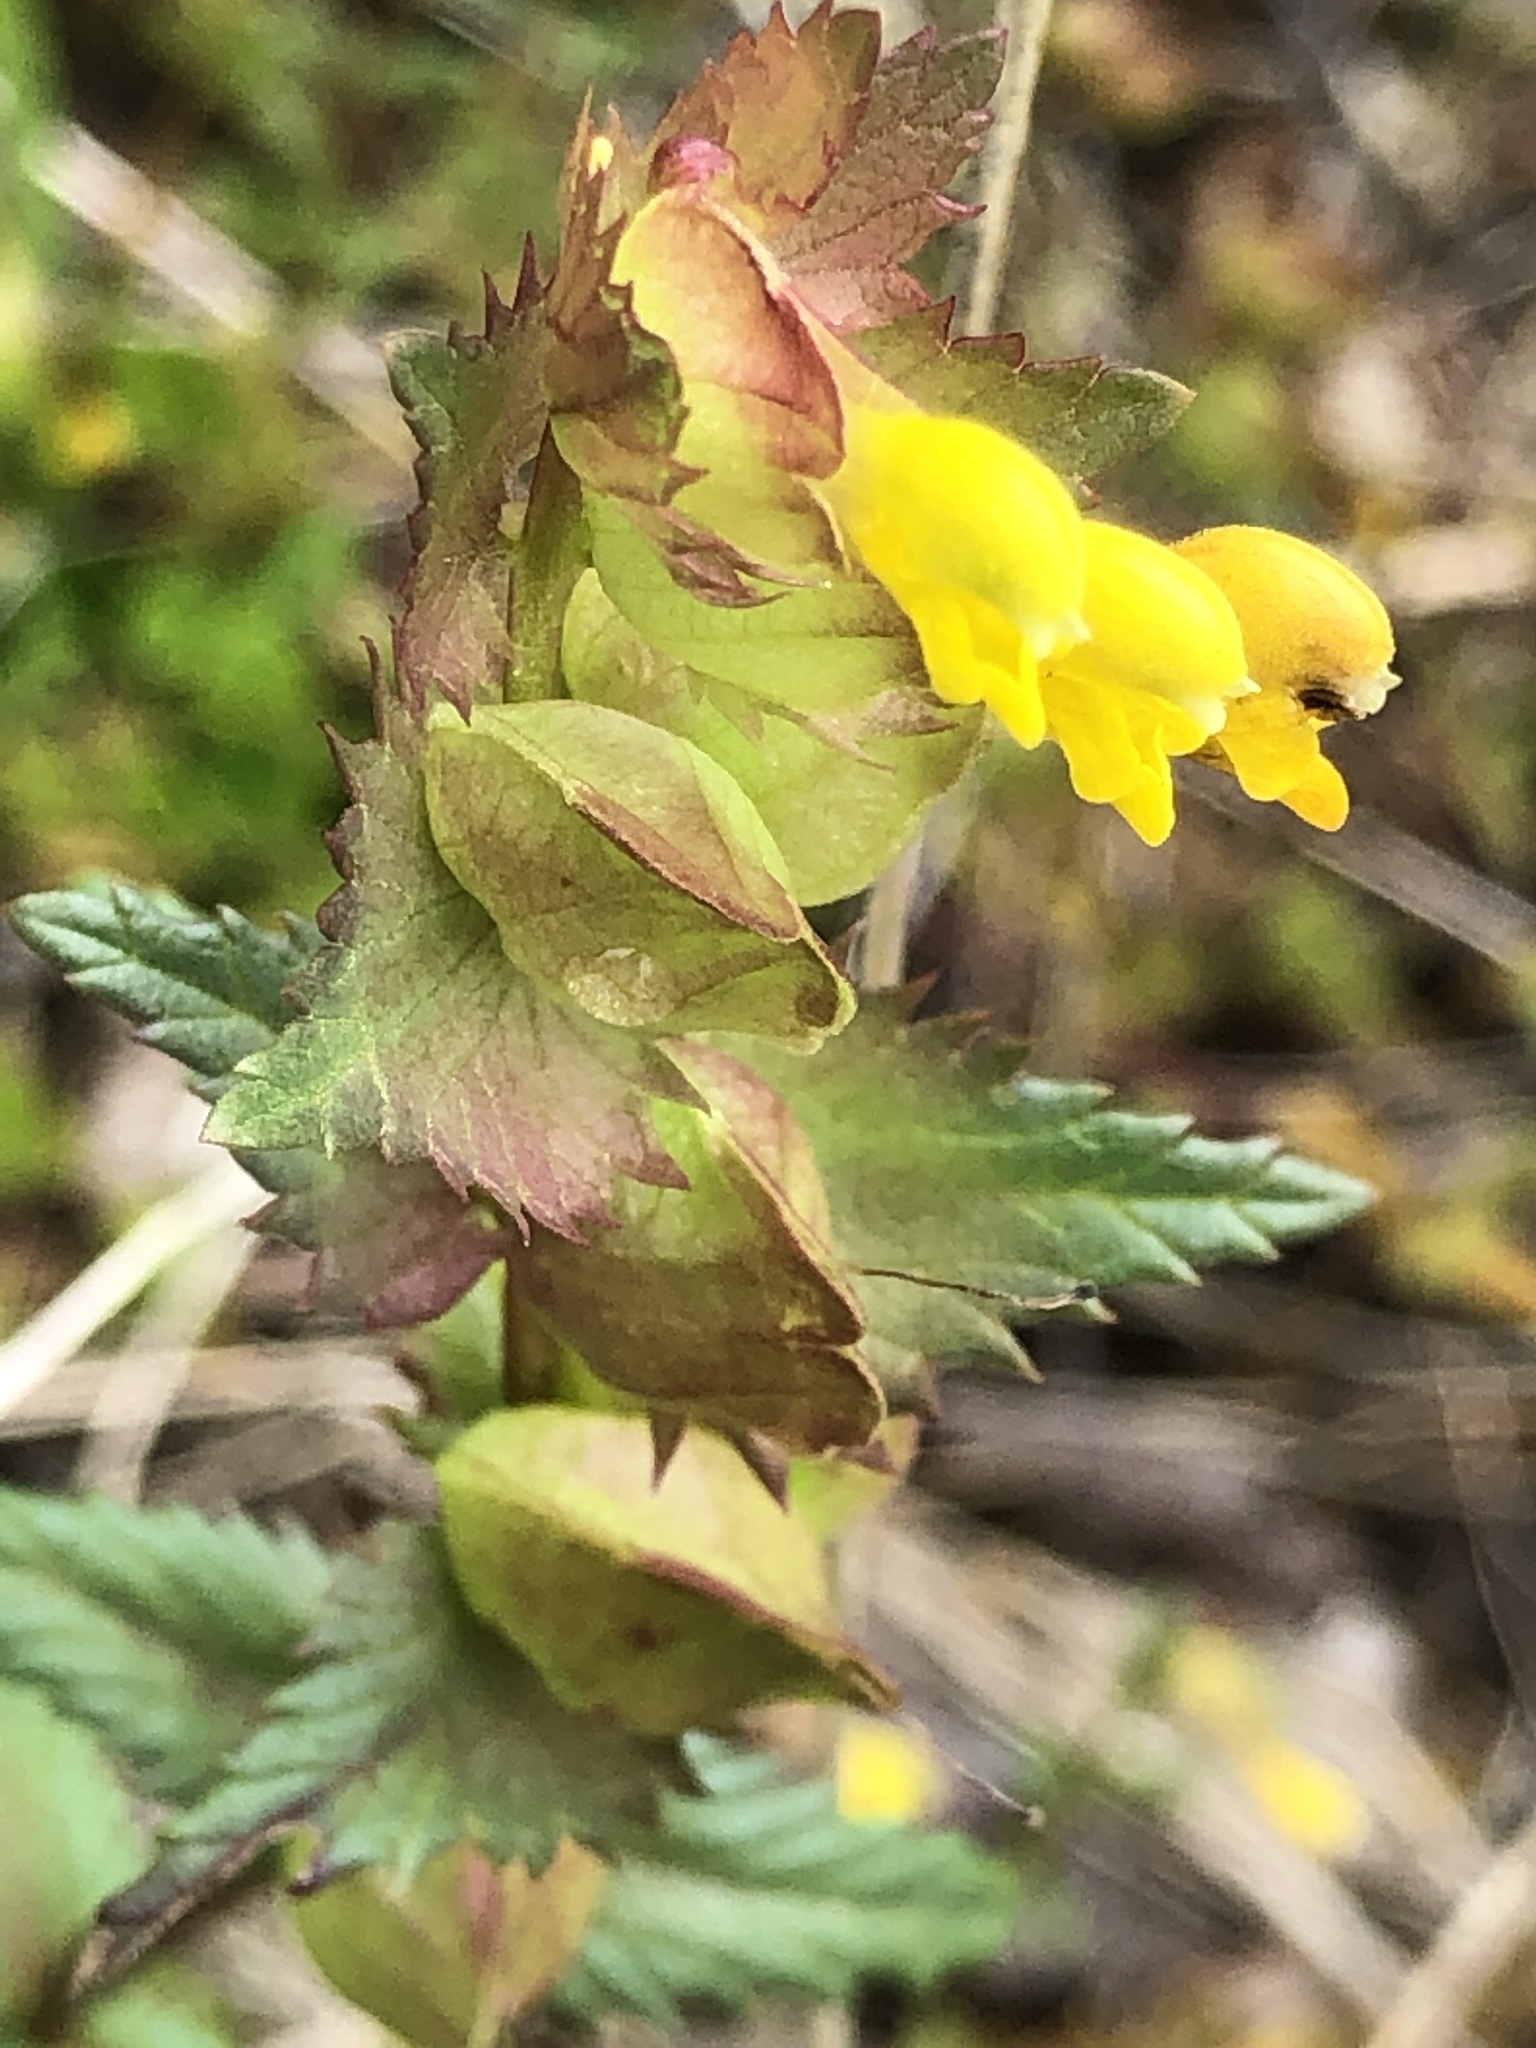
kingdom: Plantae
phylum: Tracheophyta
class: Magnoliopsida
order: Lamiales
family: Orobanchaceae
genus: Rhinanthus
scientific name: Rhinanthus minor
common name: Yellow-rattle
